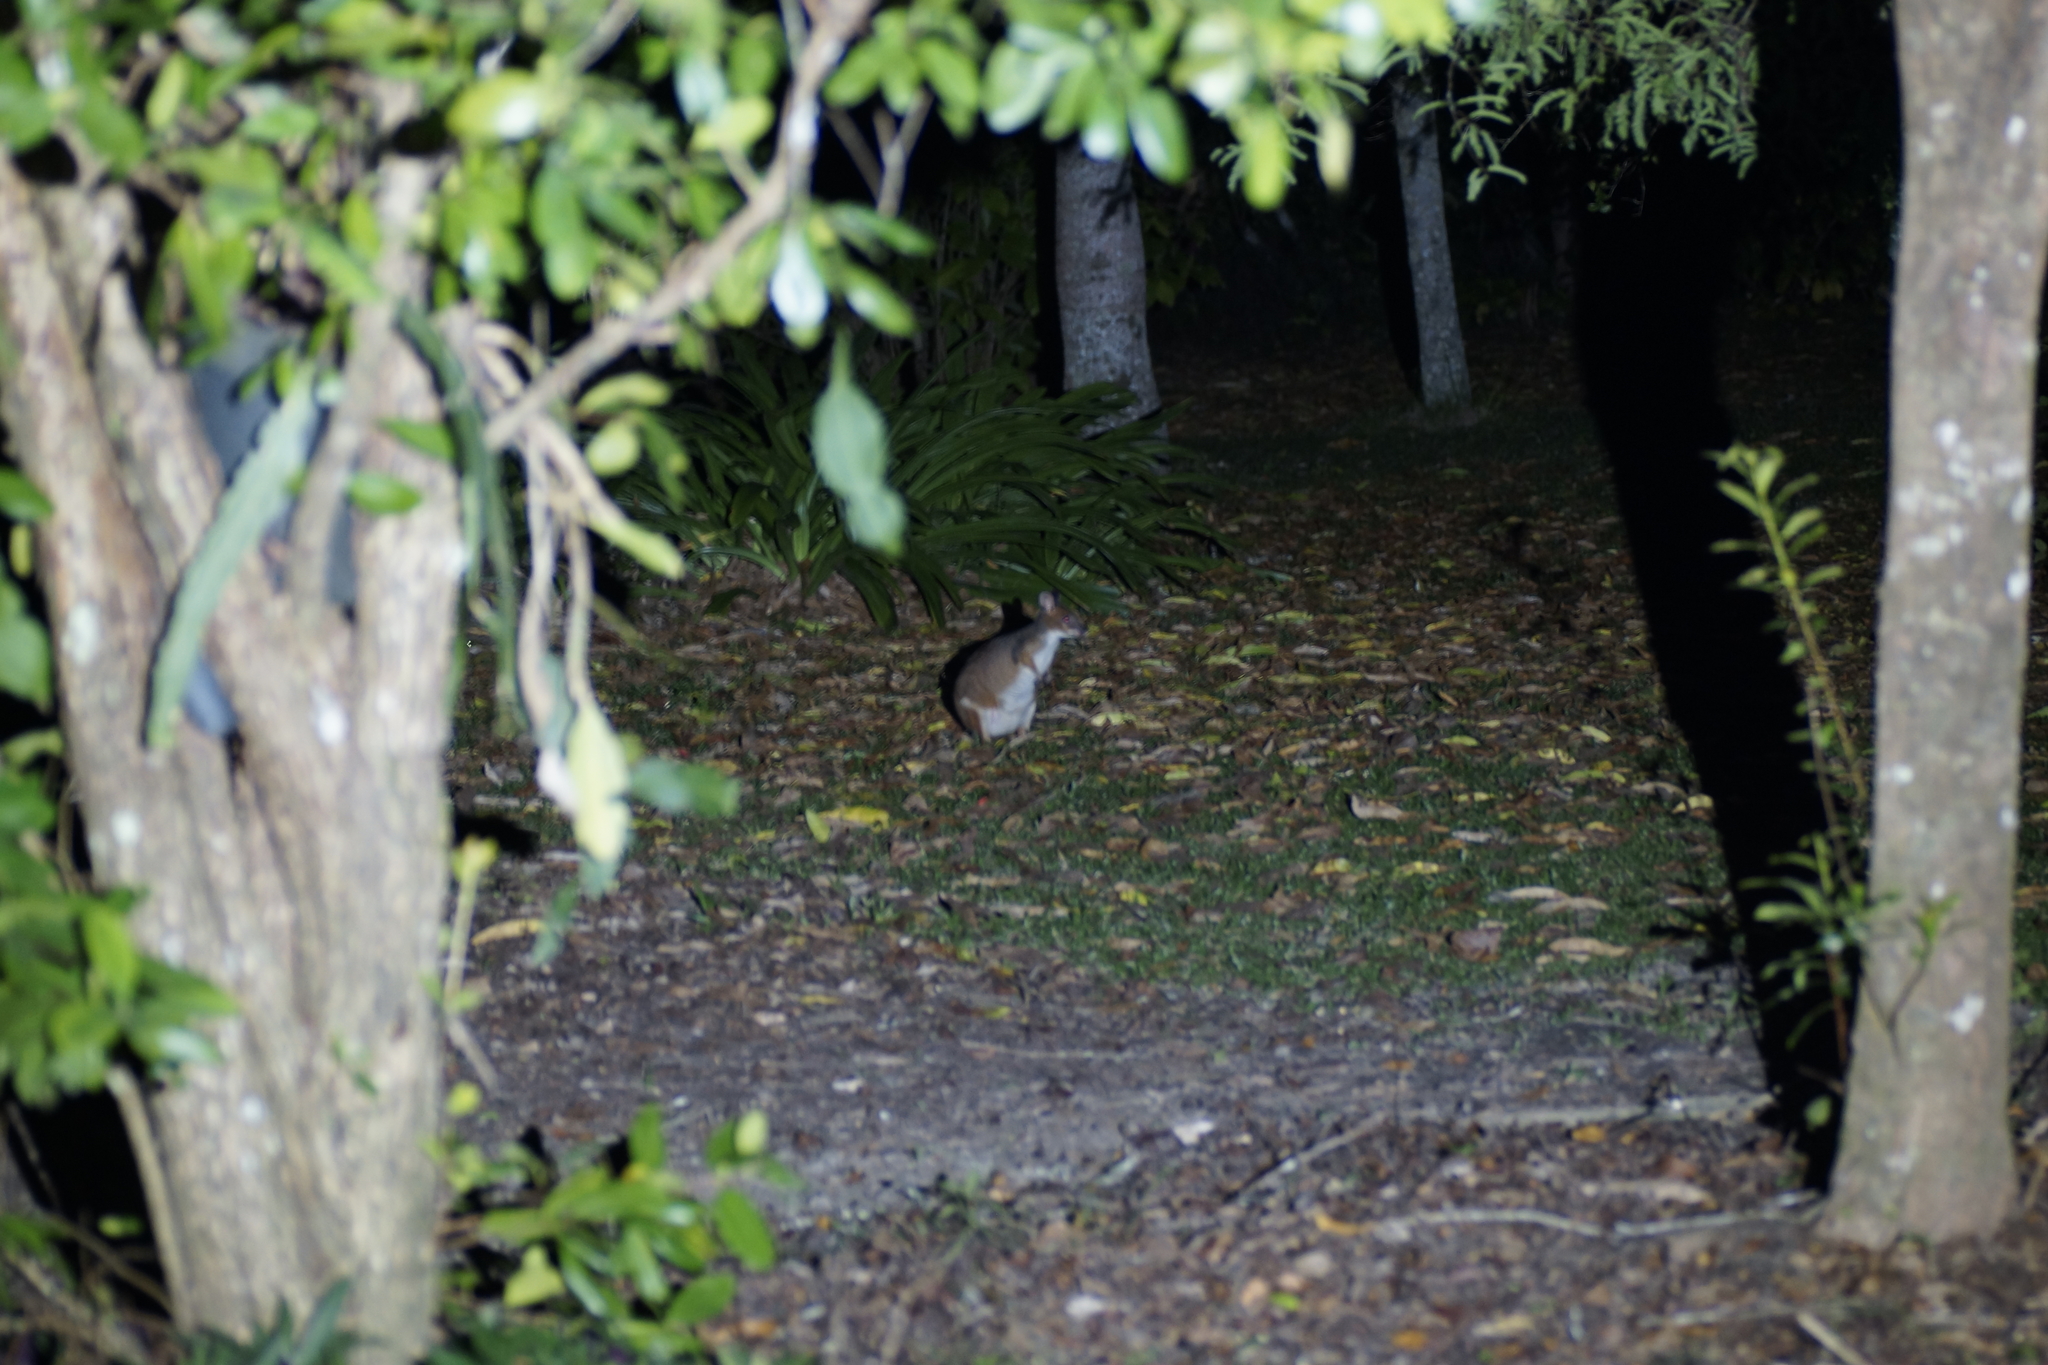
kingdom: Animalia
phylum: Chordata
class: Mammalia
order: Diprotodontia
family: Macropodidae
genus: Thylogale
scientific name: Thylogale stigmatica
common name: Red-legged pademelon
